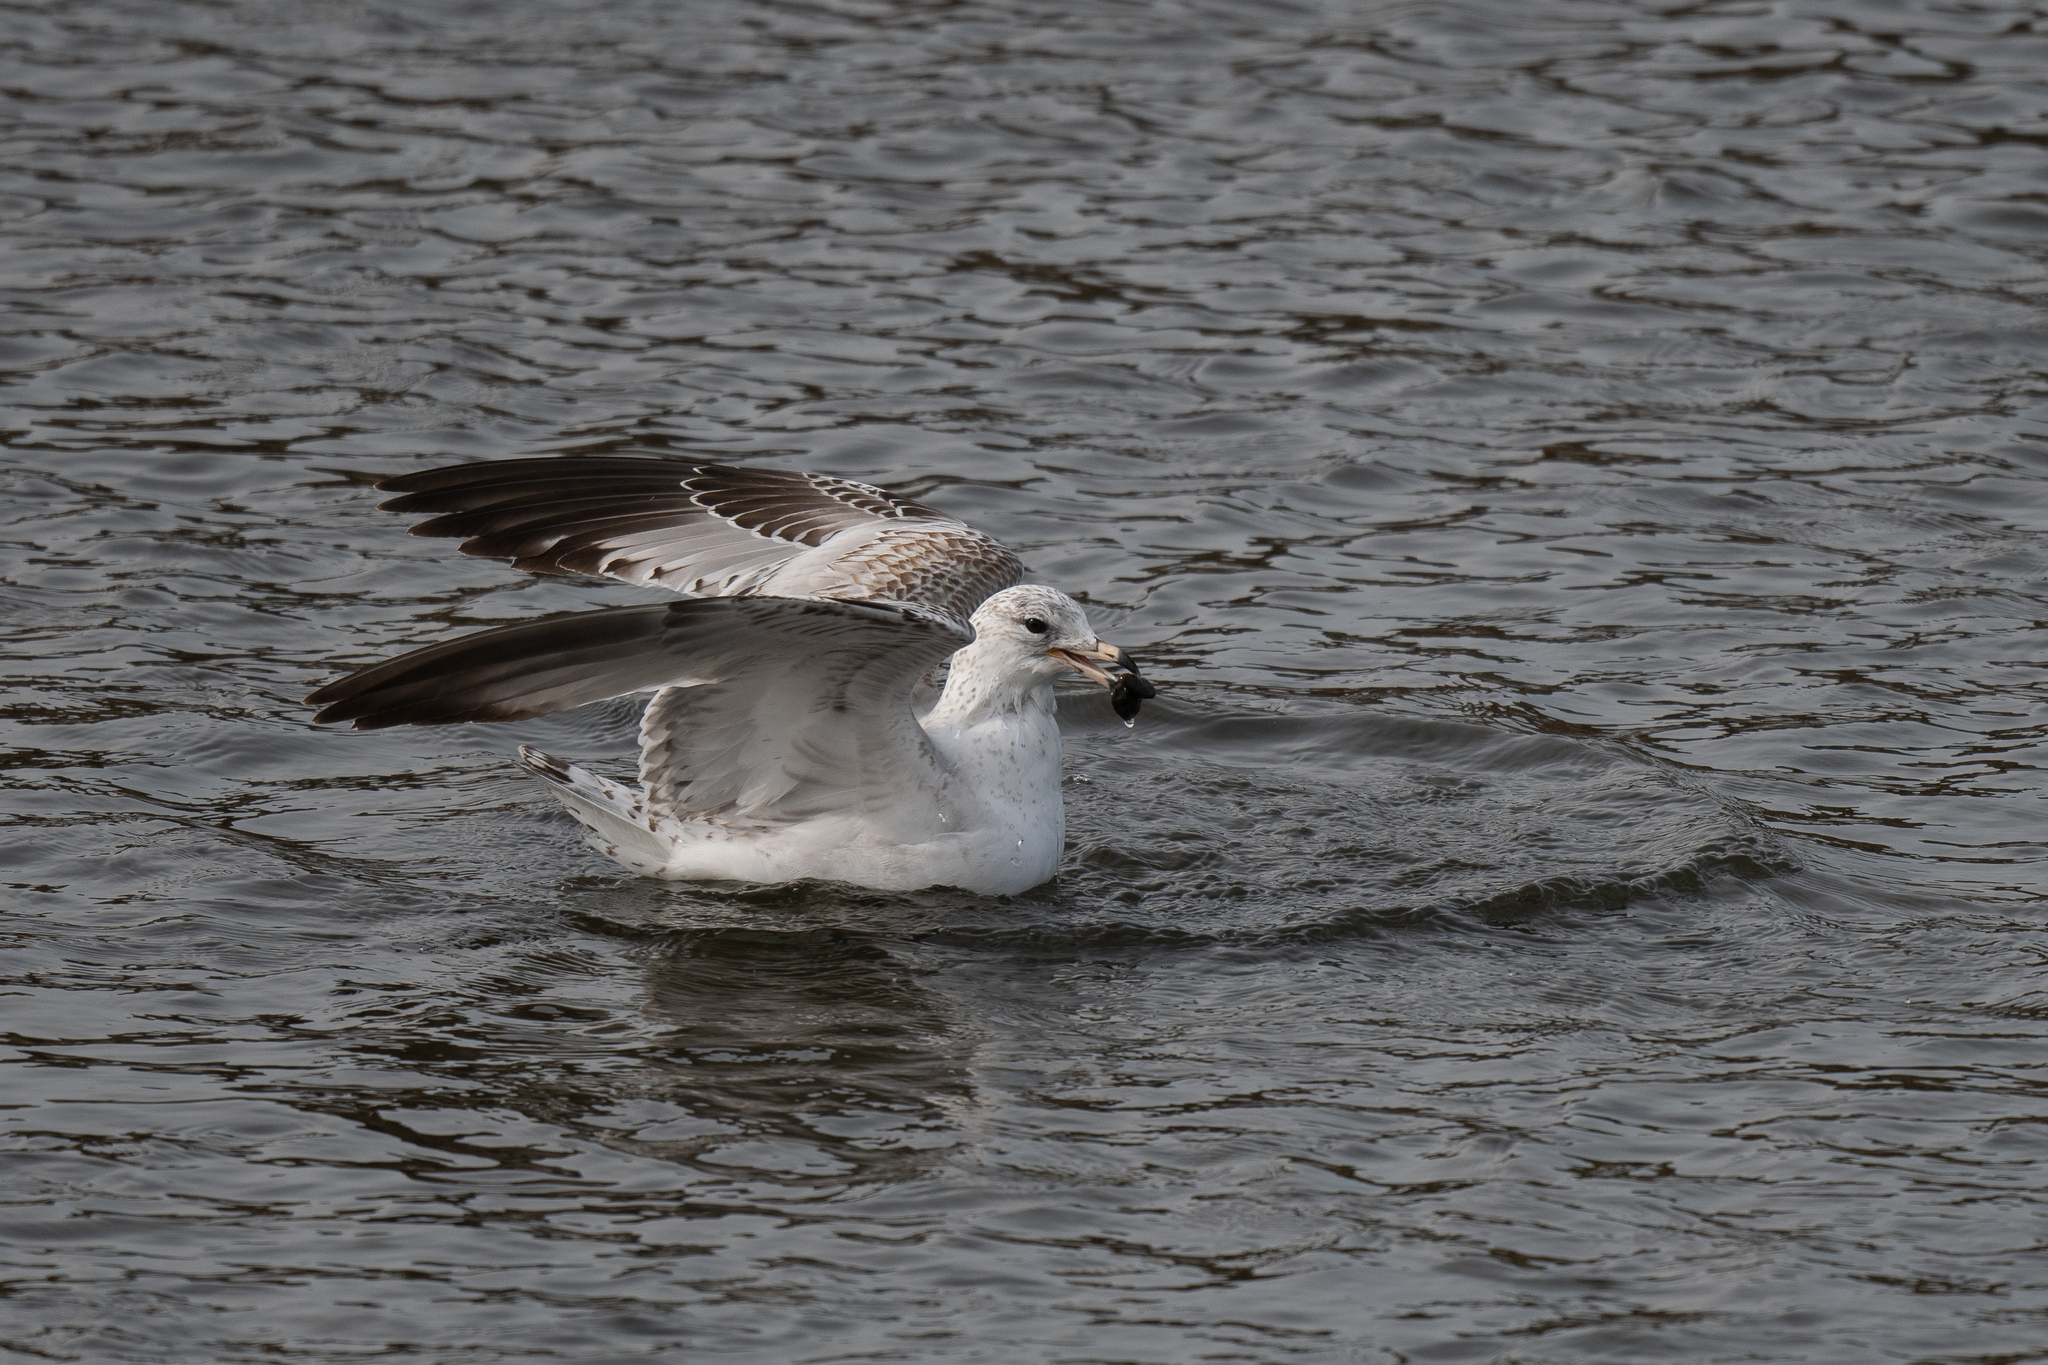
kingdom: Animalia
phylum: Chordata
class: Aves
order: Charadriiformes
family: Laridae
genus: Larus
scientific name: Larus delawarensis
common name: Ring-billed gull
